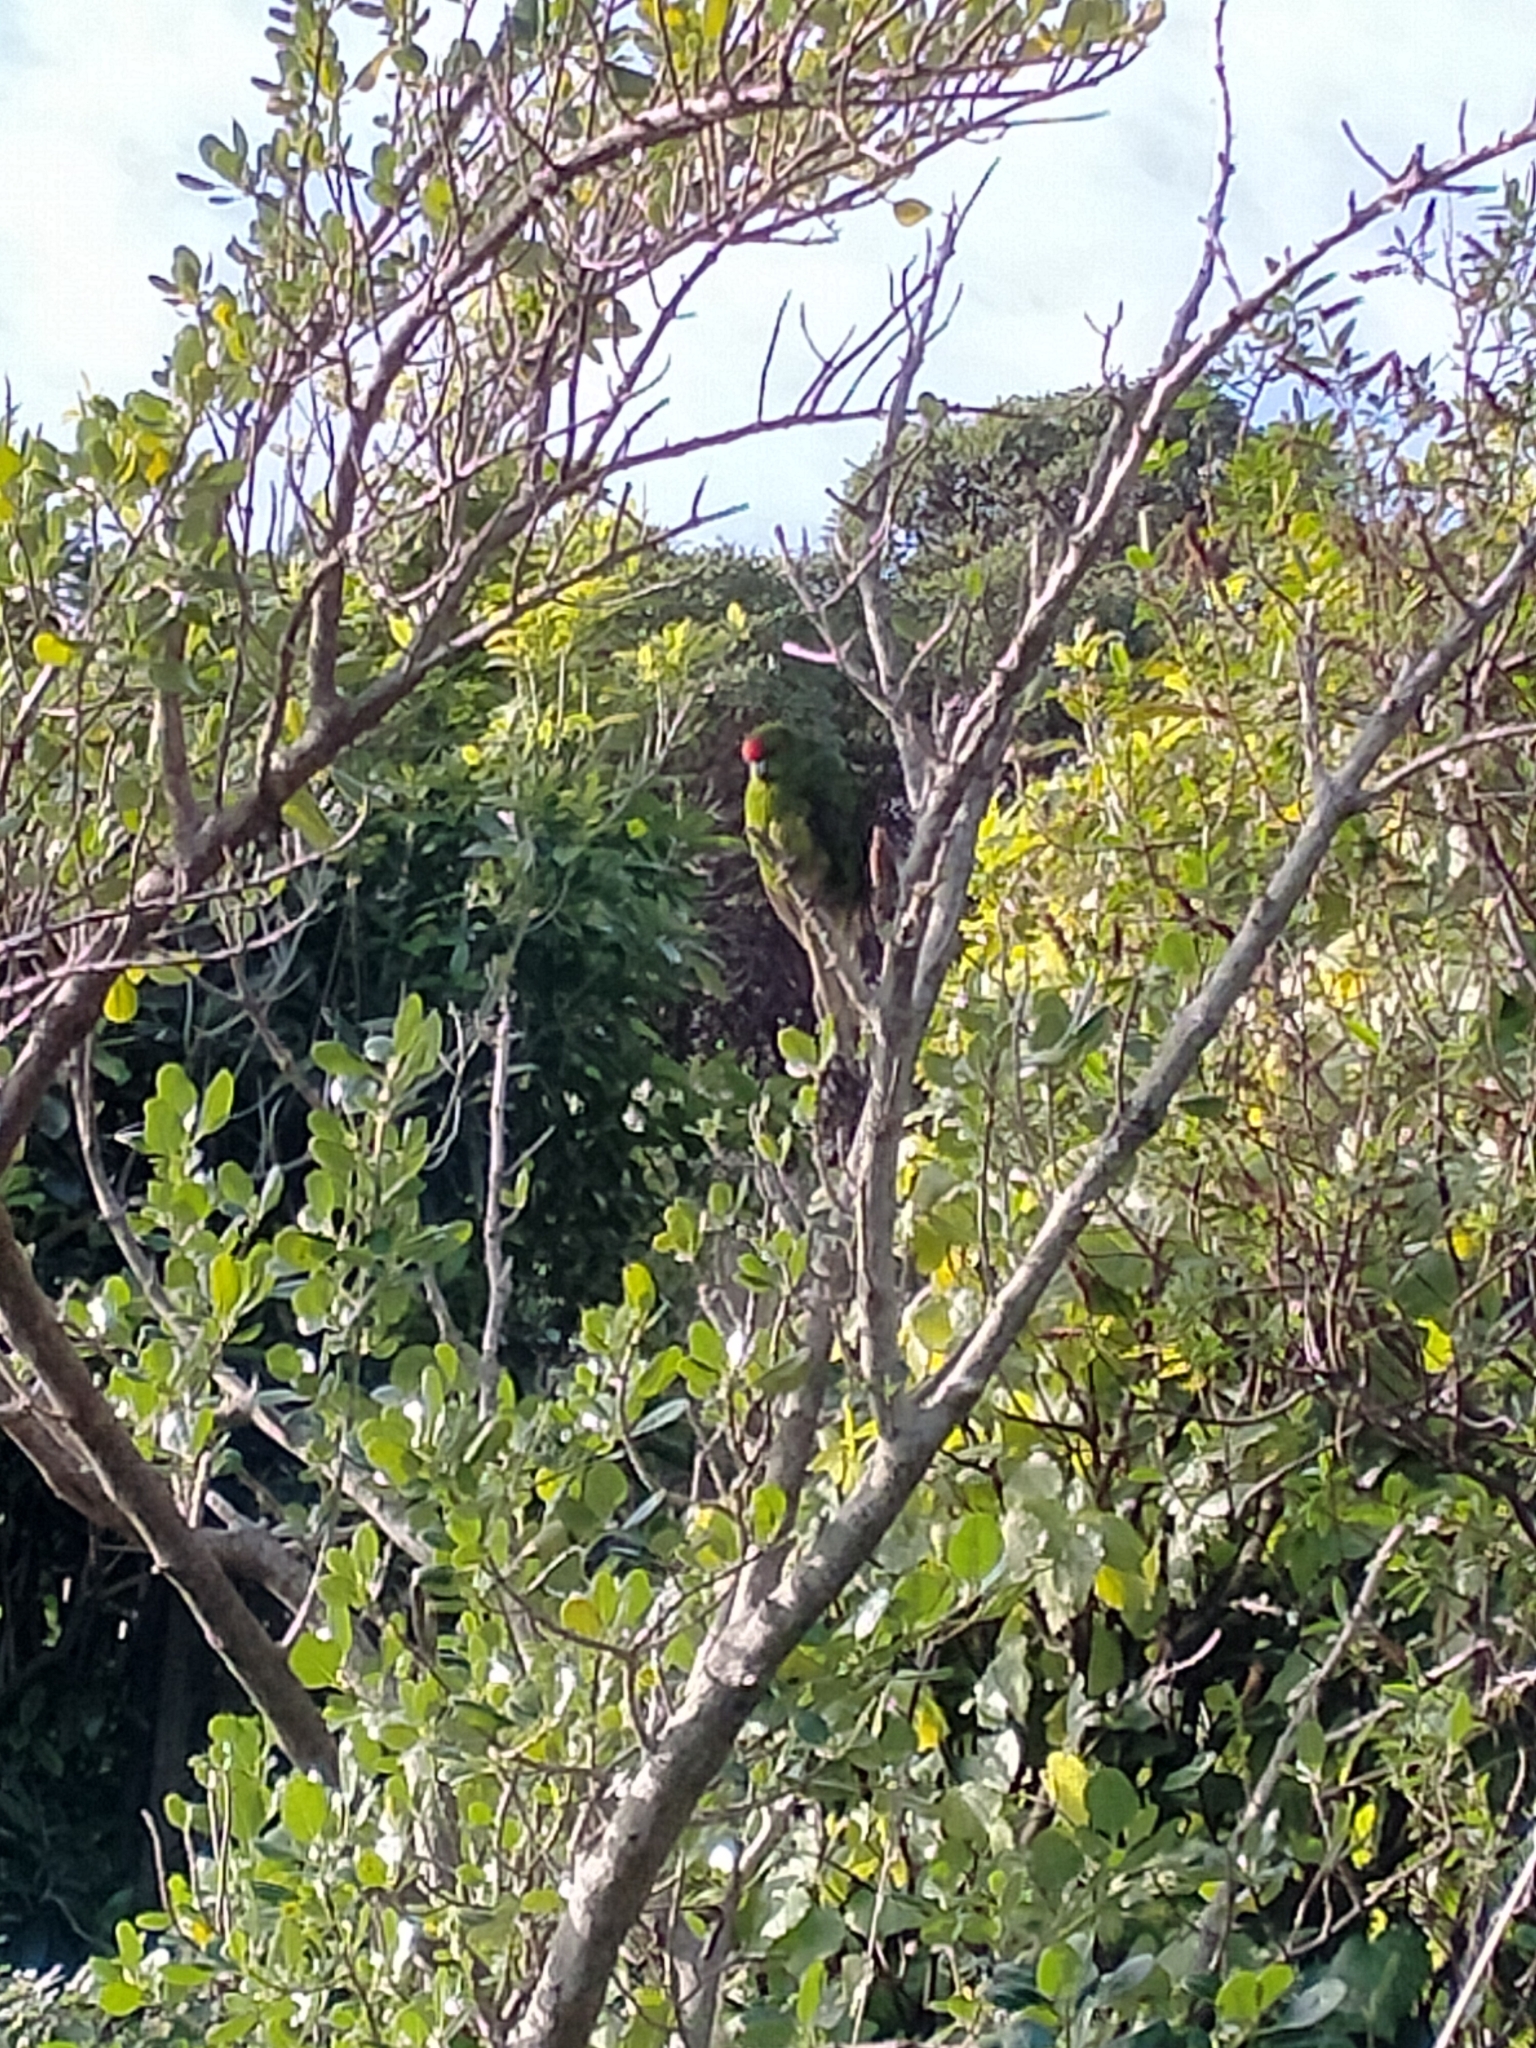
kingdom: Animalia
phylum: Chordata
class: Aves
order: Psittaciformes
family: Psittacidae
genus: Cyanoramphus
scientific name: Cyanoramphus novaezelandiae
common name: Red-fronted parakeet
